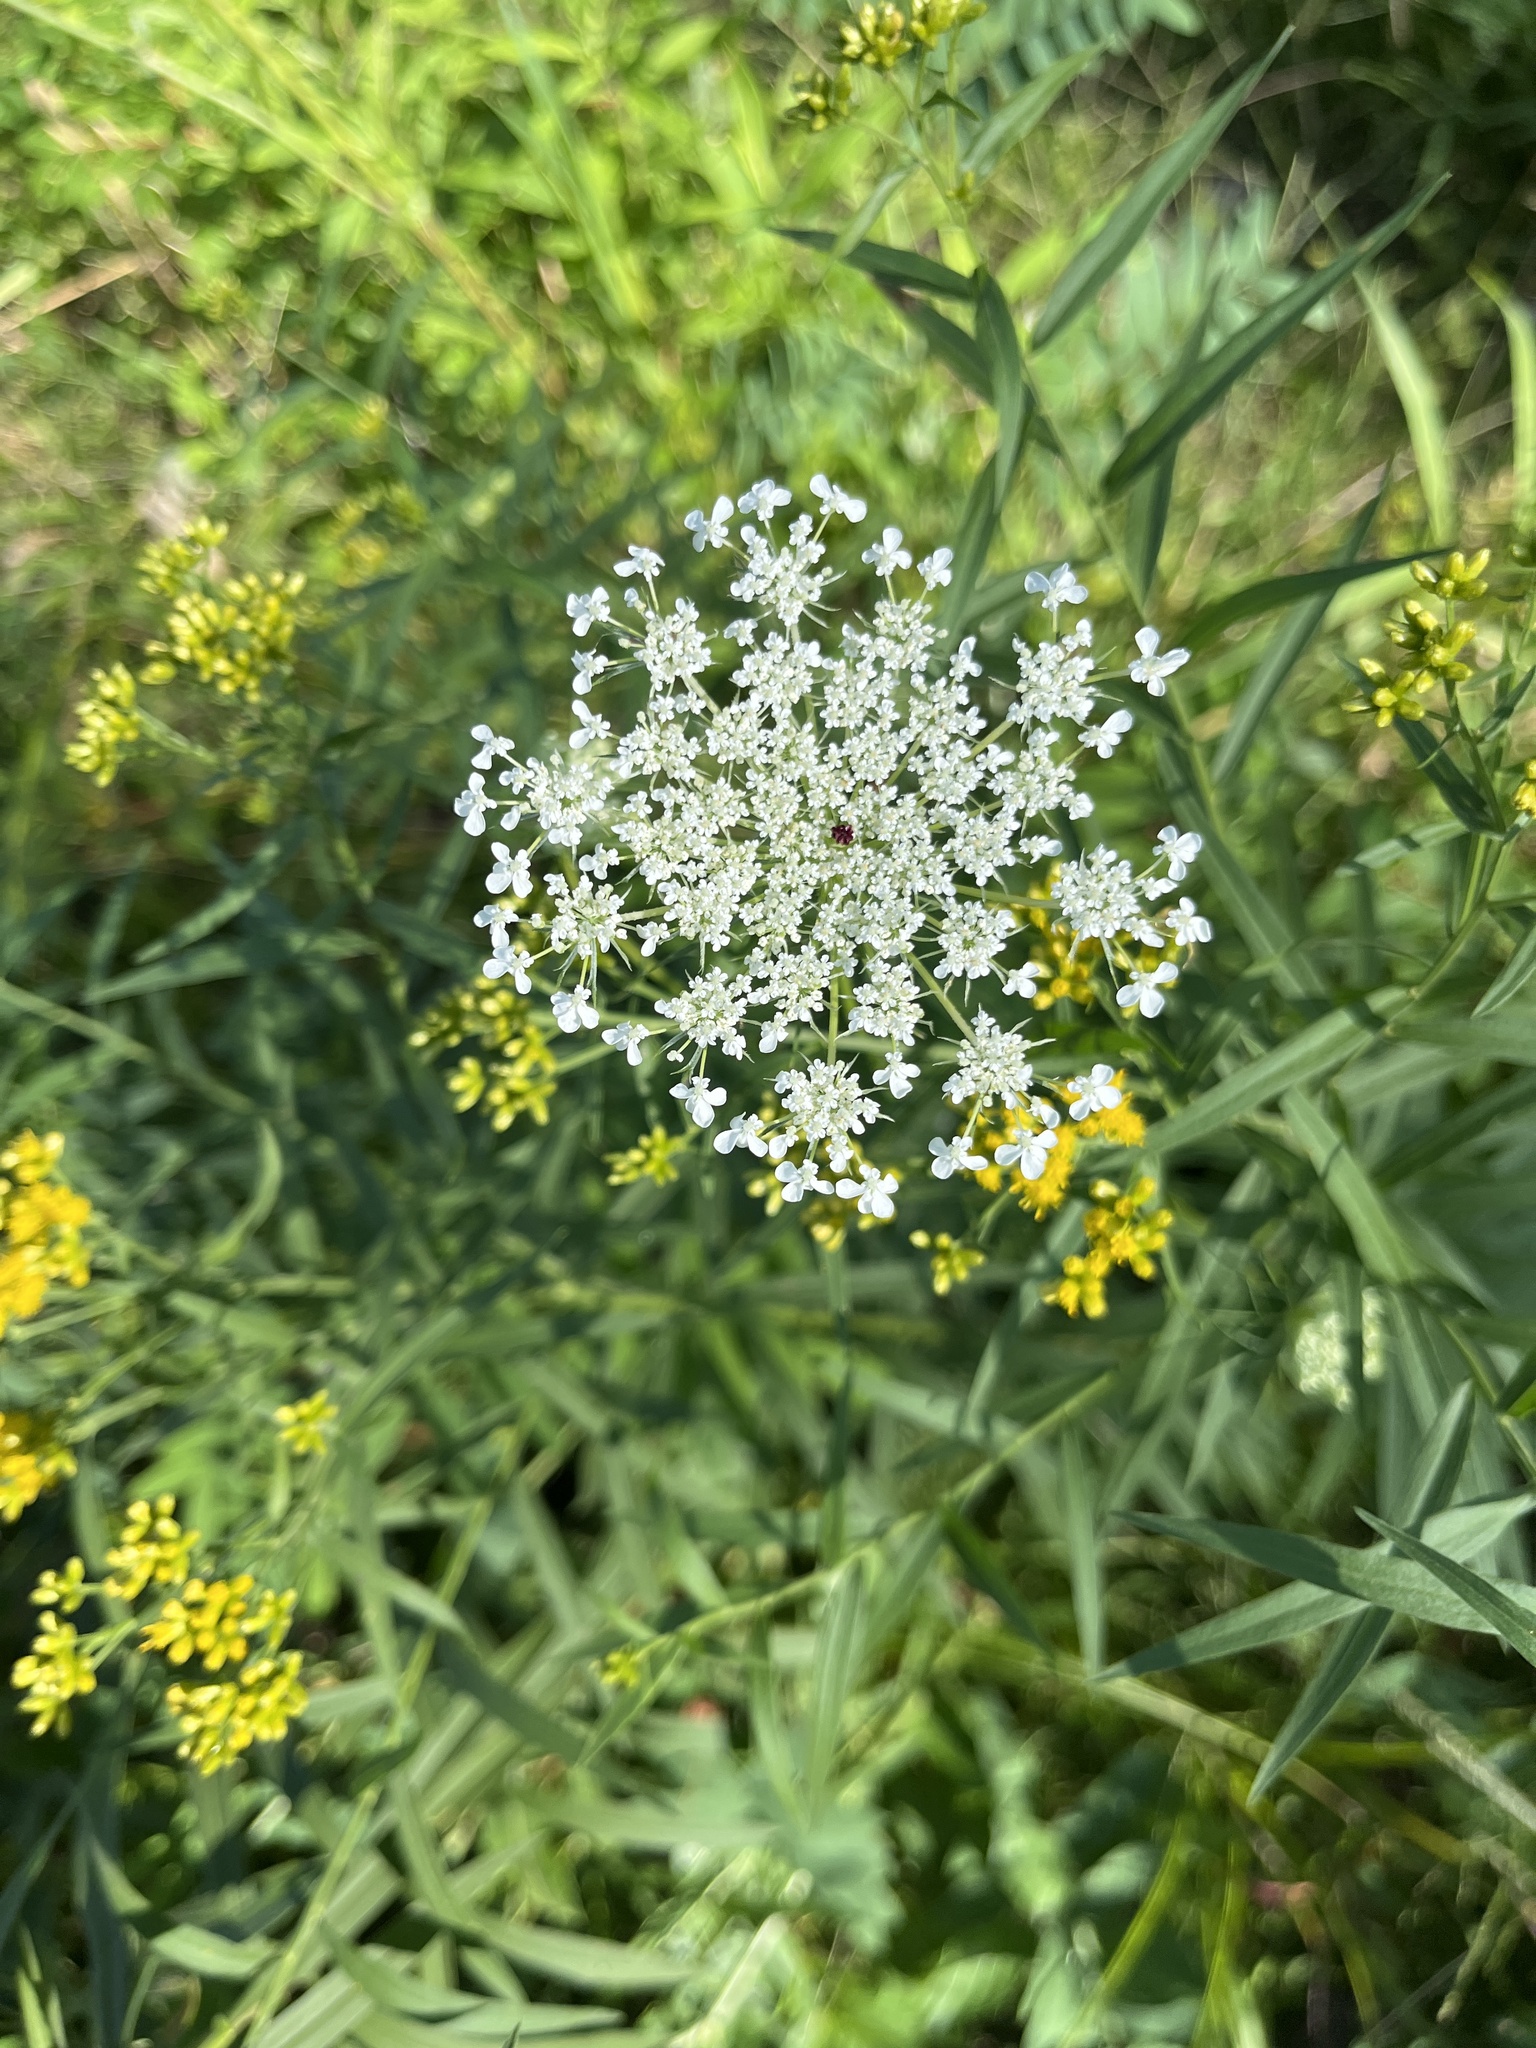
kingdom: Plantae
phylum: Tracheophyta
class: Magnoliopsida
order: Apiales
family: Apiaceae
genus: Daucus
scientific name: Daucus carota
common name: Wild carrot
